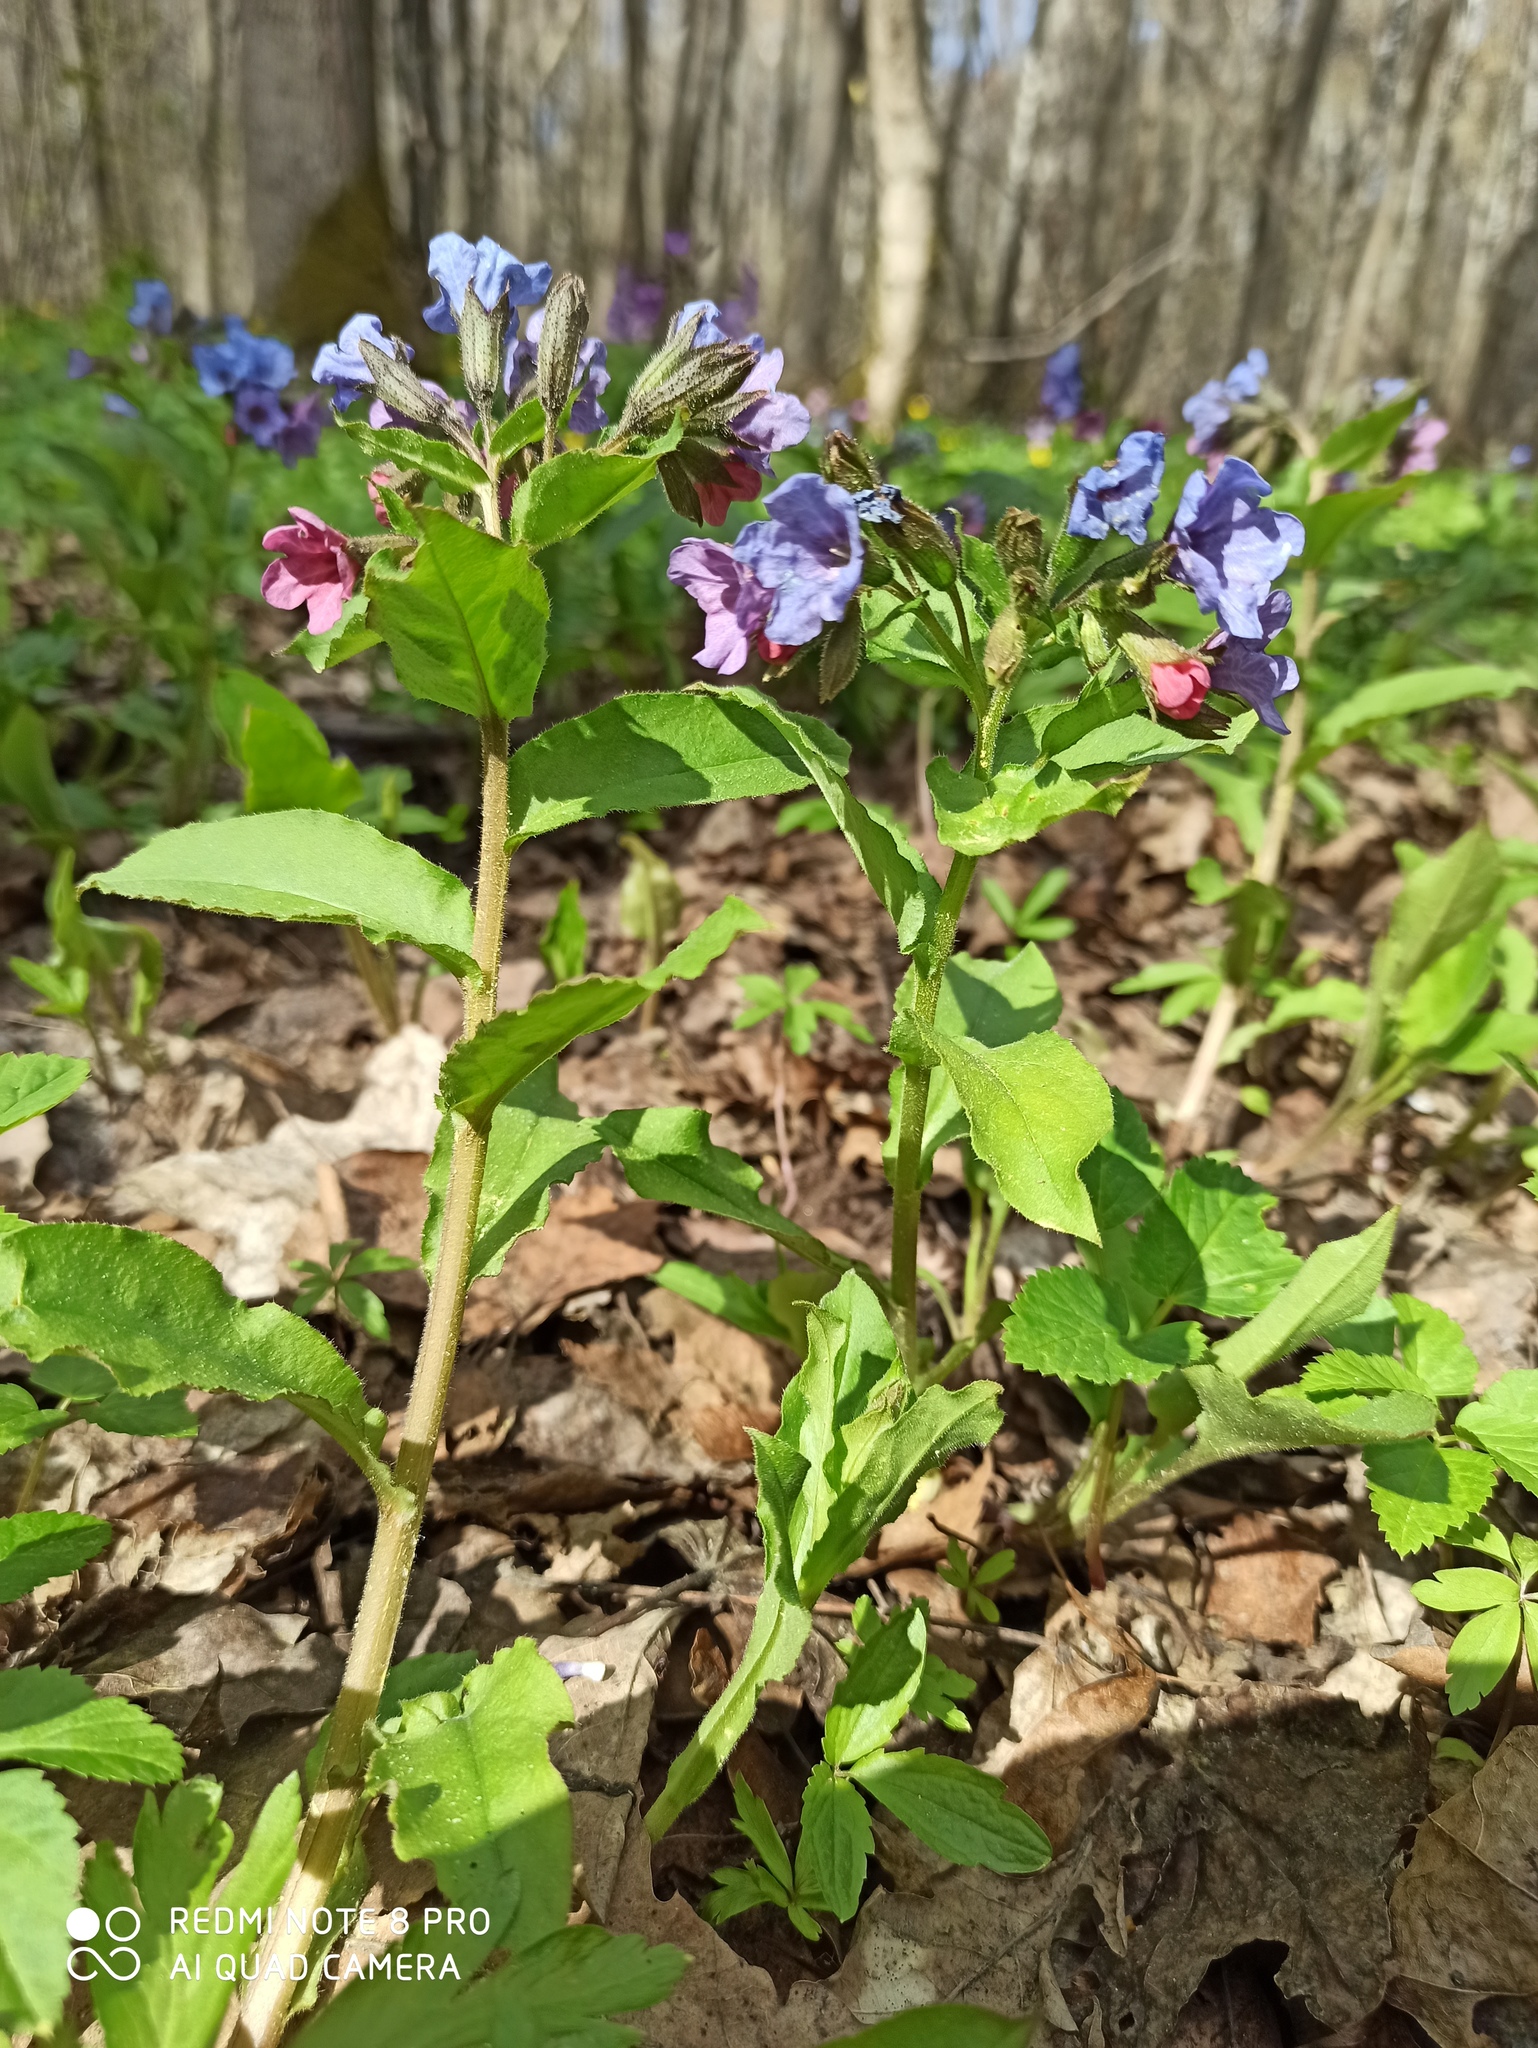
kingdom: Plantae
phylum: Tracheophyta
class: Magnoliopsida
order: Boraginales
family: Boraginaceae
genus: Pulmonaria
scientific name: Pulmonaria obscura
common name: Suffolk lungwort
